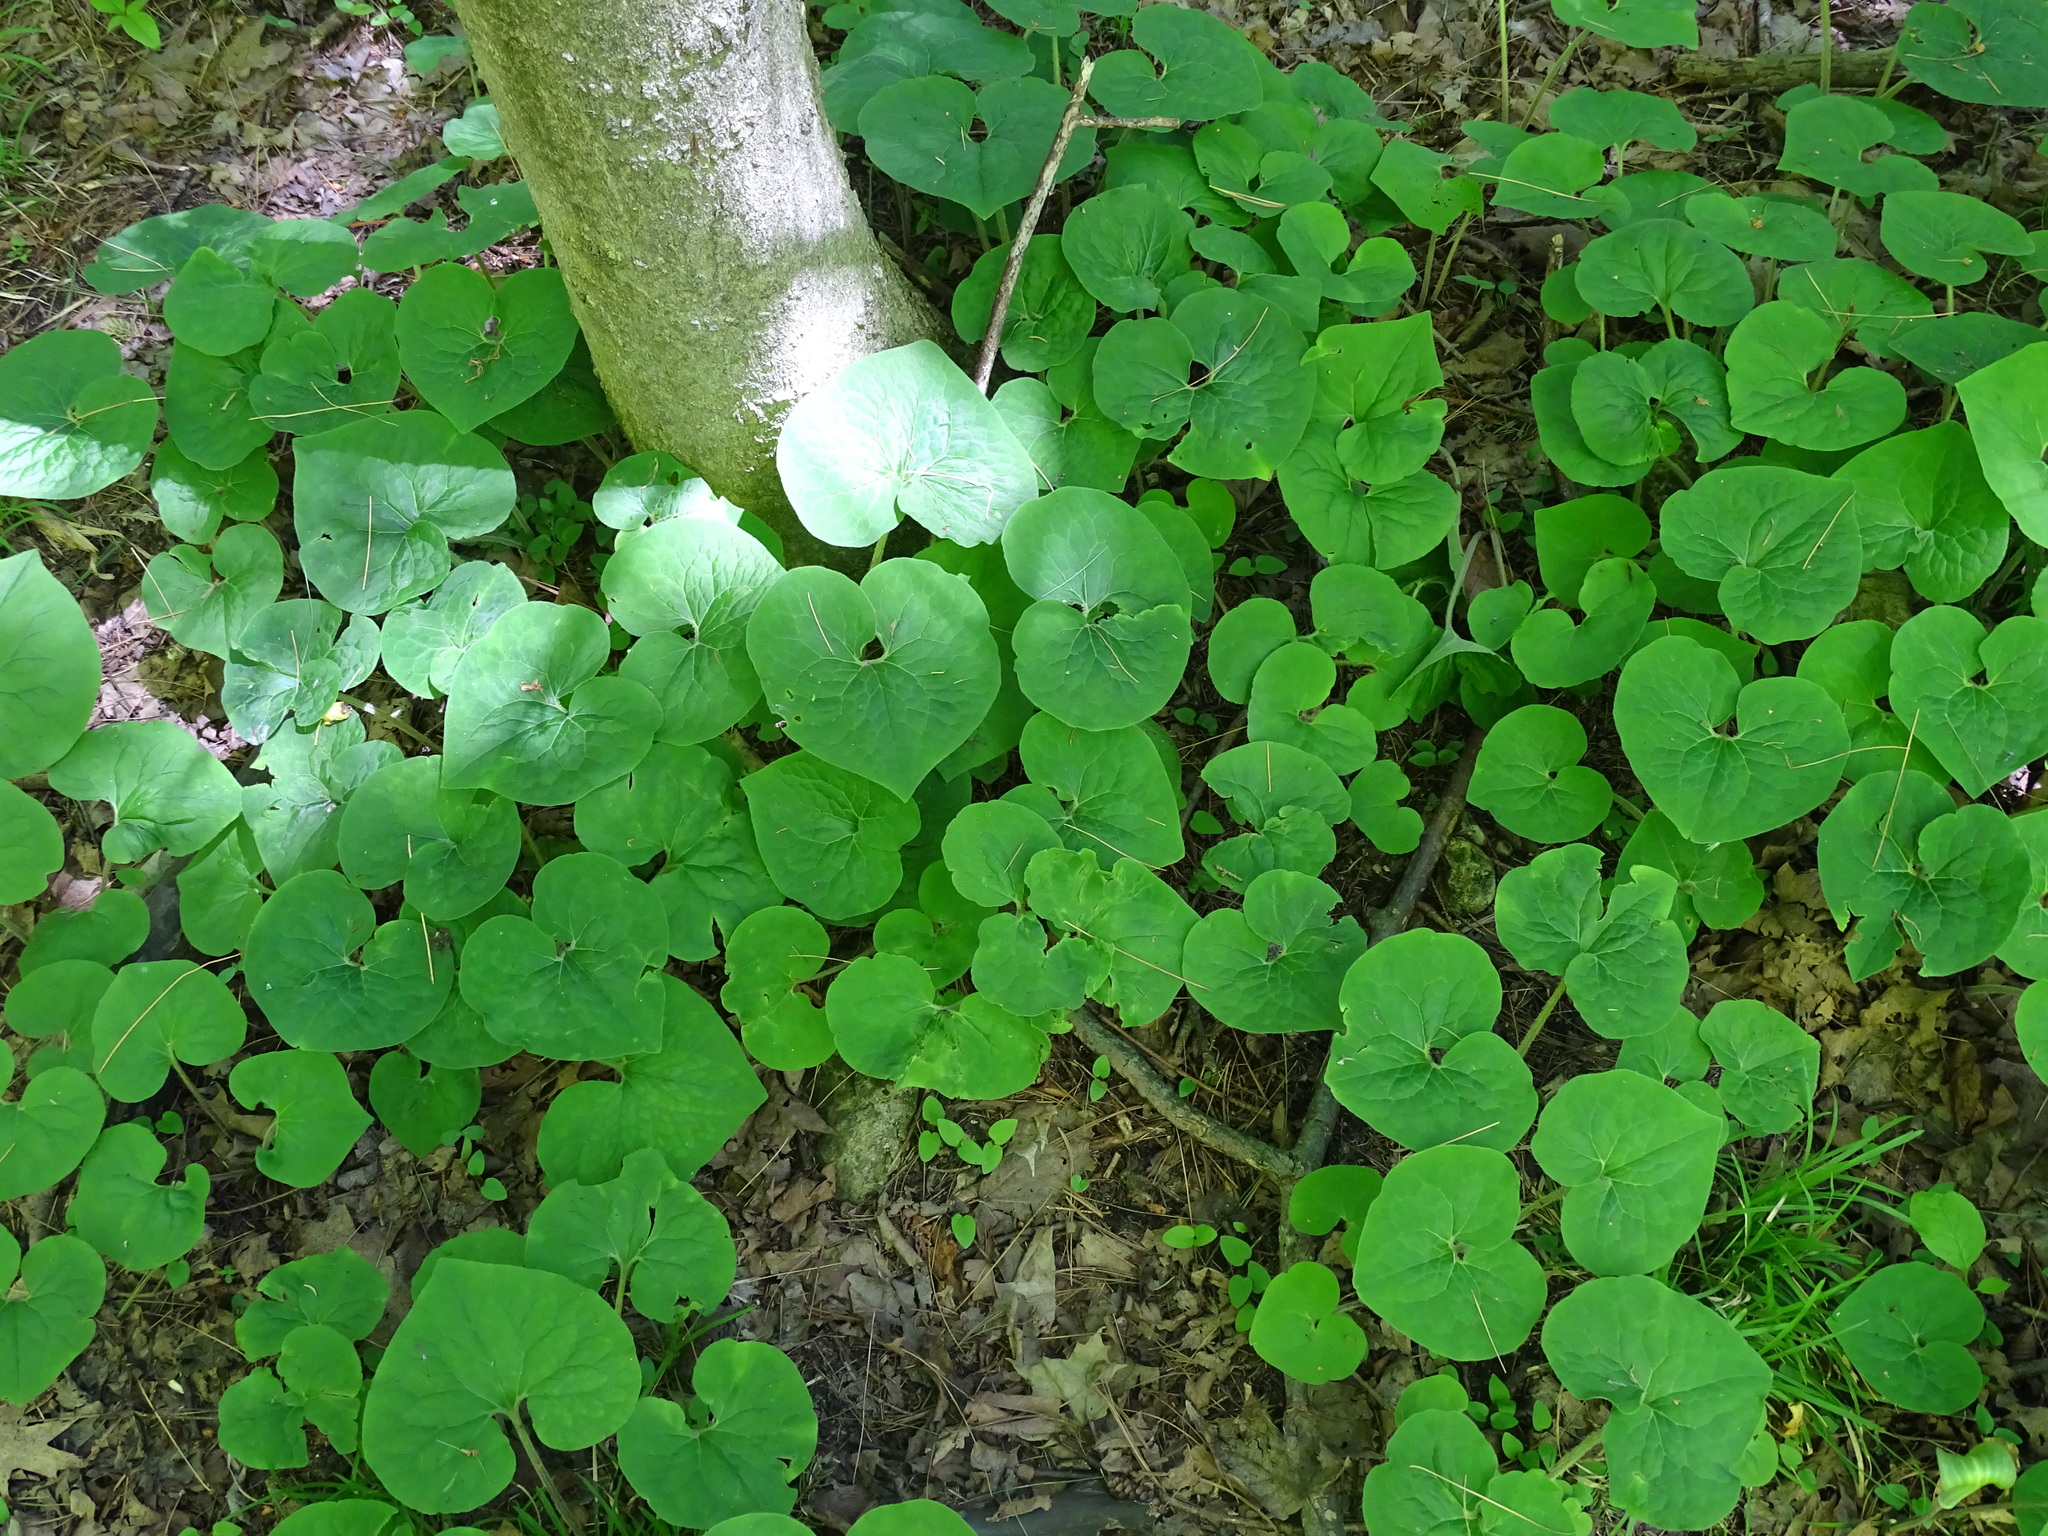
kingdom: Plantae
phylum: Tracheophyta
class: Magnoliopsida
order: Piperales
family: Aristolochiaceae
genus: Asarum
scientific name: Asarum canadense
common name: Wild ginger
